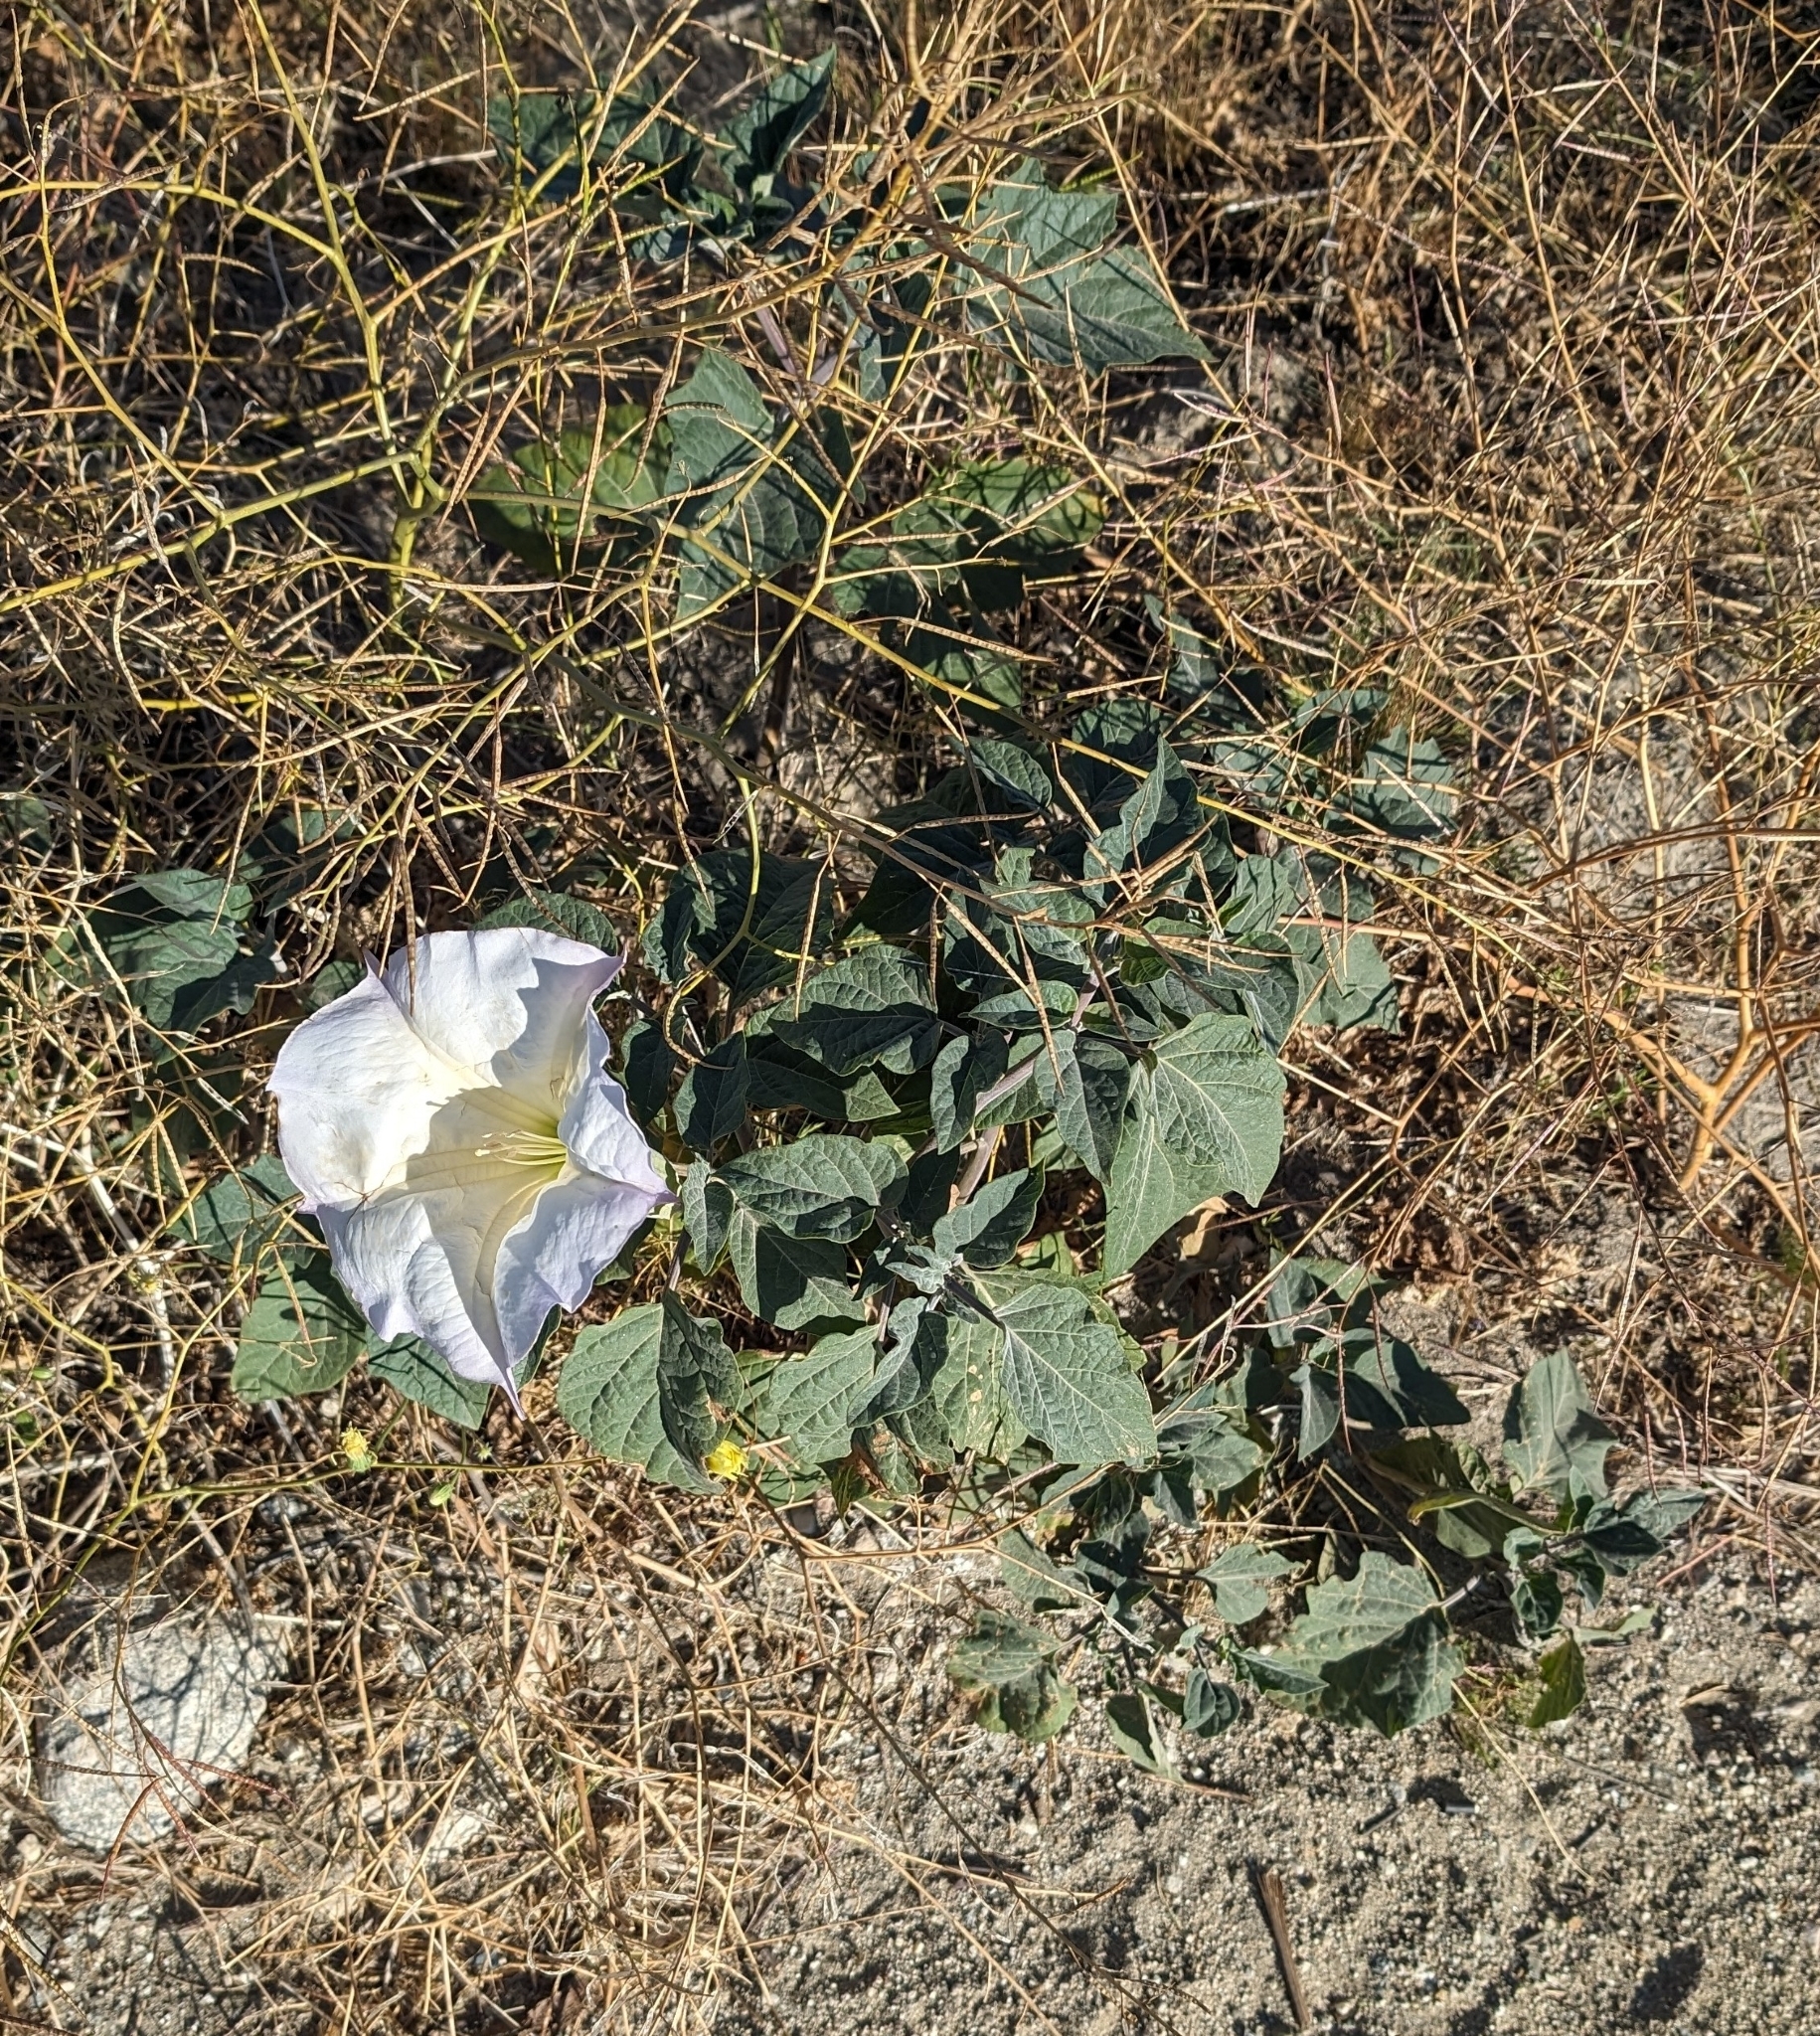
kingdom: Plantae
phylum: Tracheophyta
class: Magnoliopsida
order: Solanales
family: Solanaceae
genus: Datura
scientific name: Datura wrightii
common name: Sacred thorn-apple
